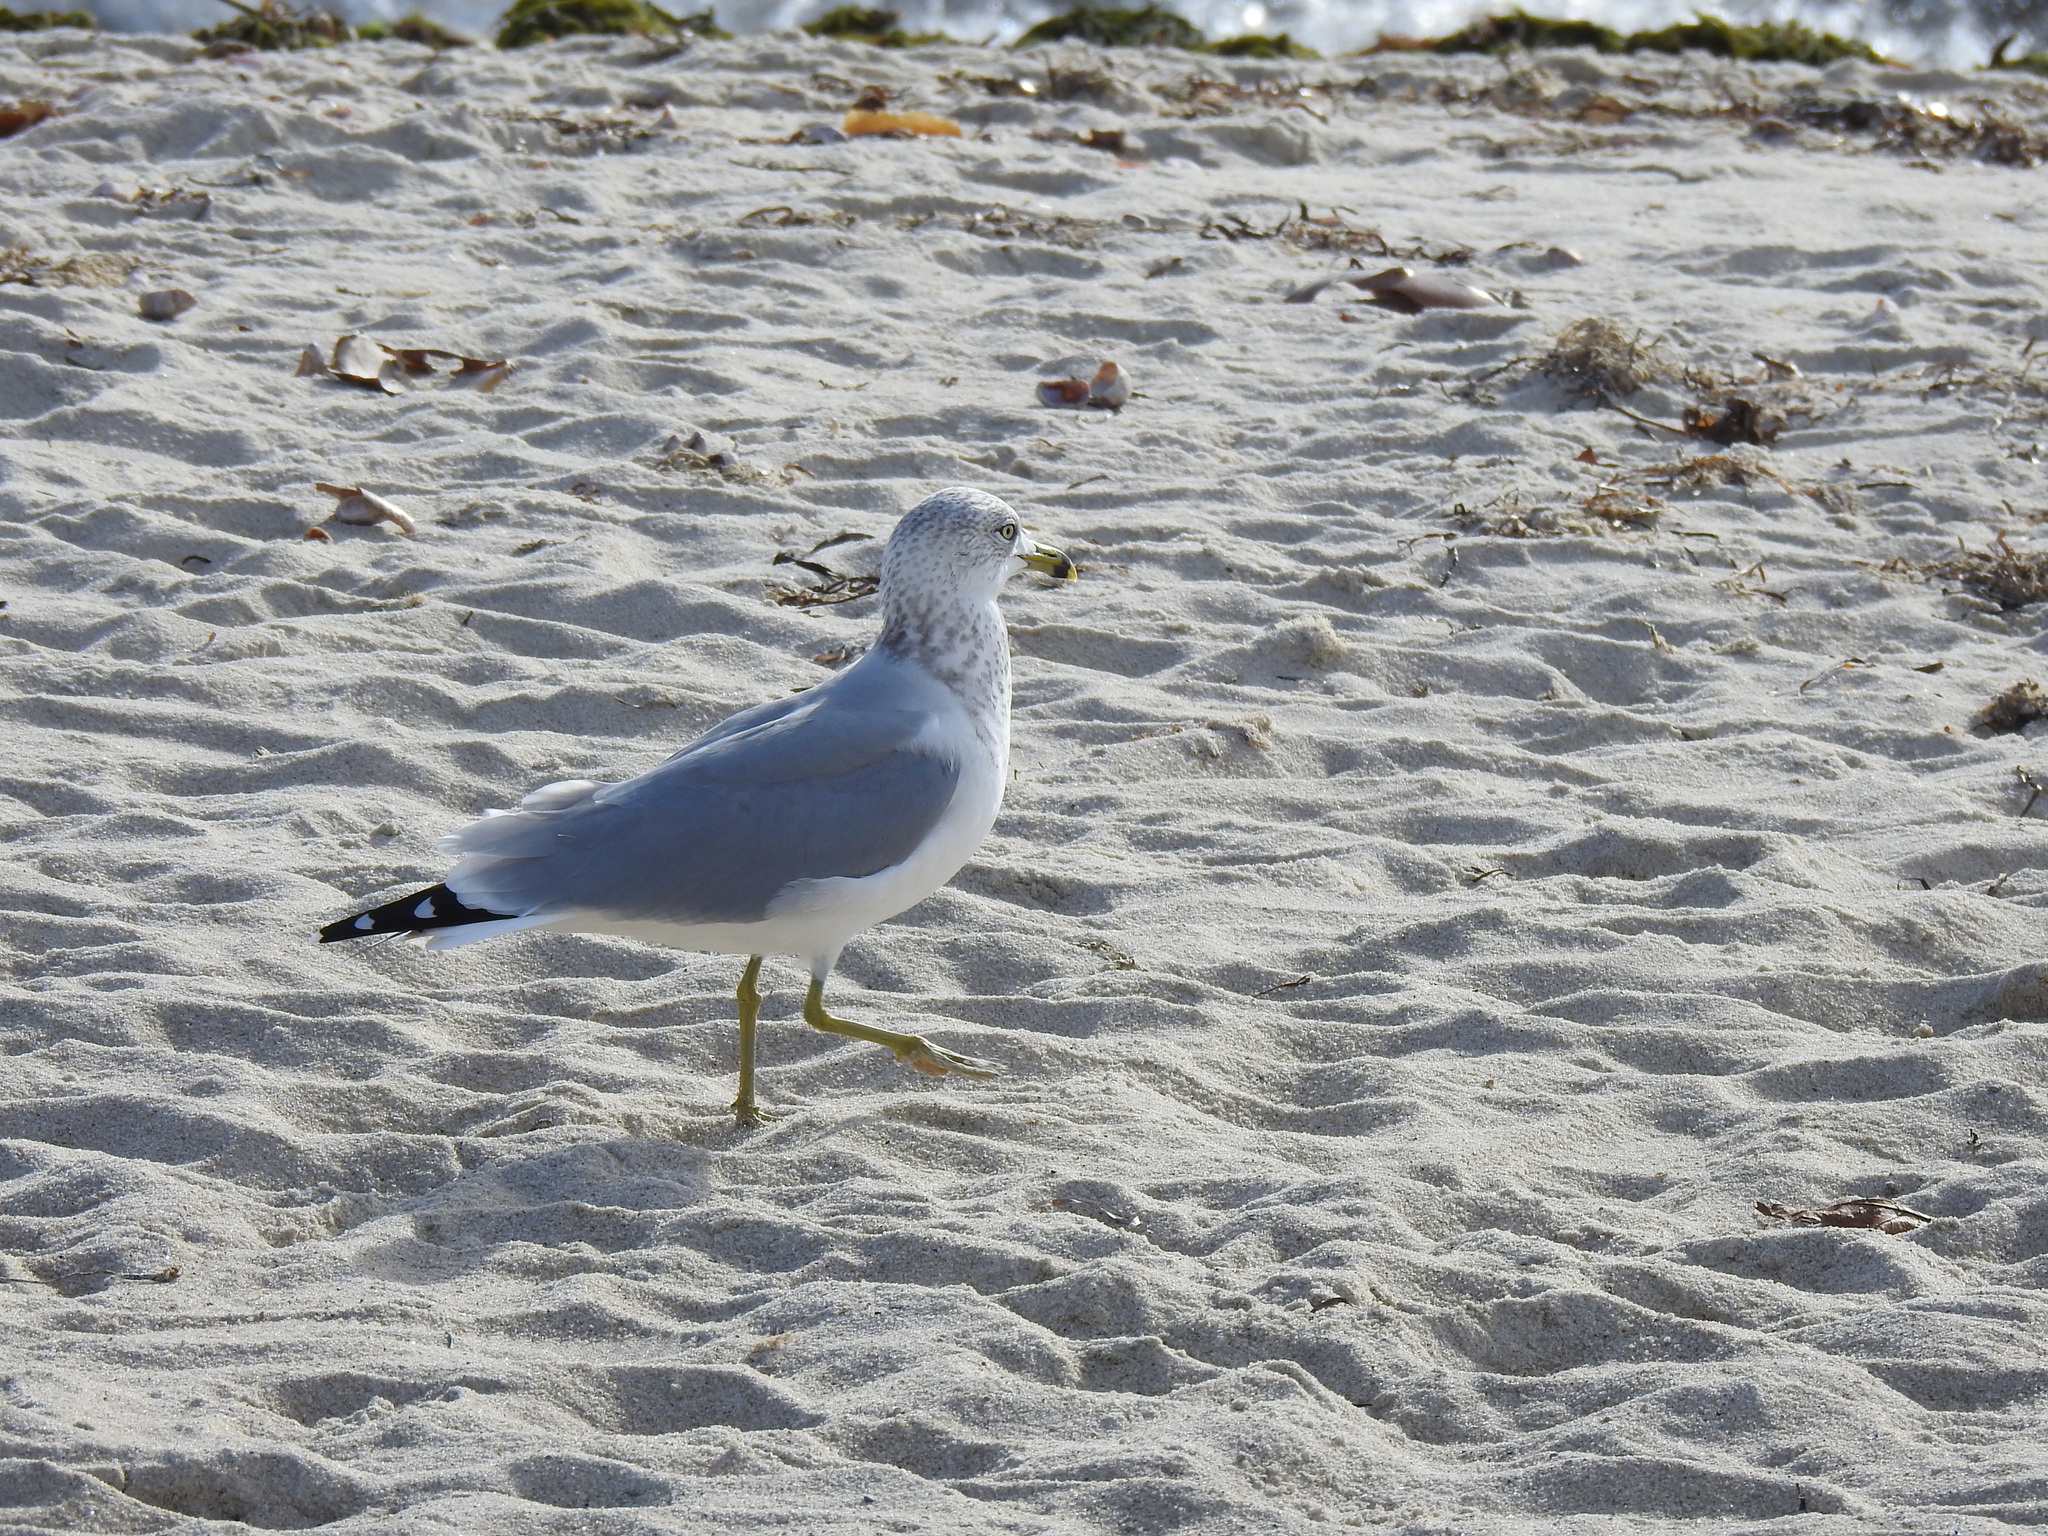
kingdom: Animalia
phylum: Chordata
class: Aves
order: Charadriiformes
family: Laridae
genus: Larus
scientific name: Larus delawarensis
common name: Ring-billed gull
